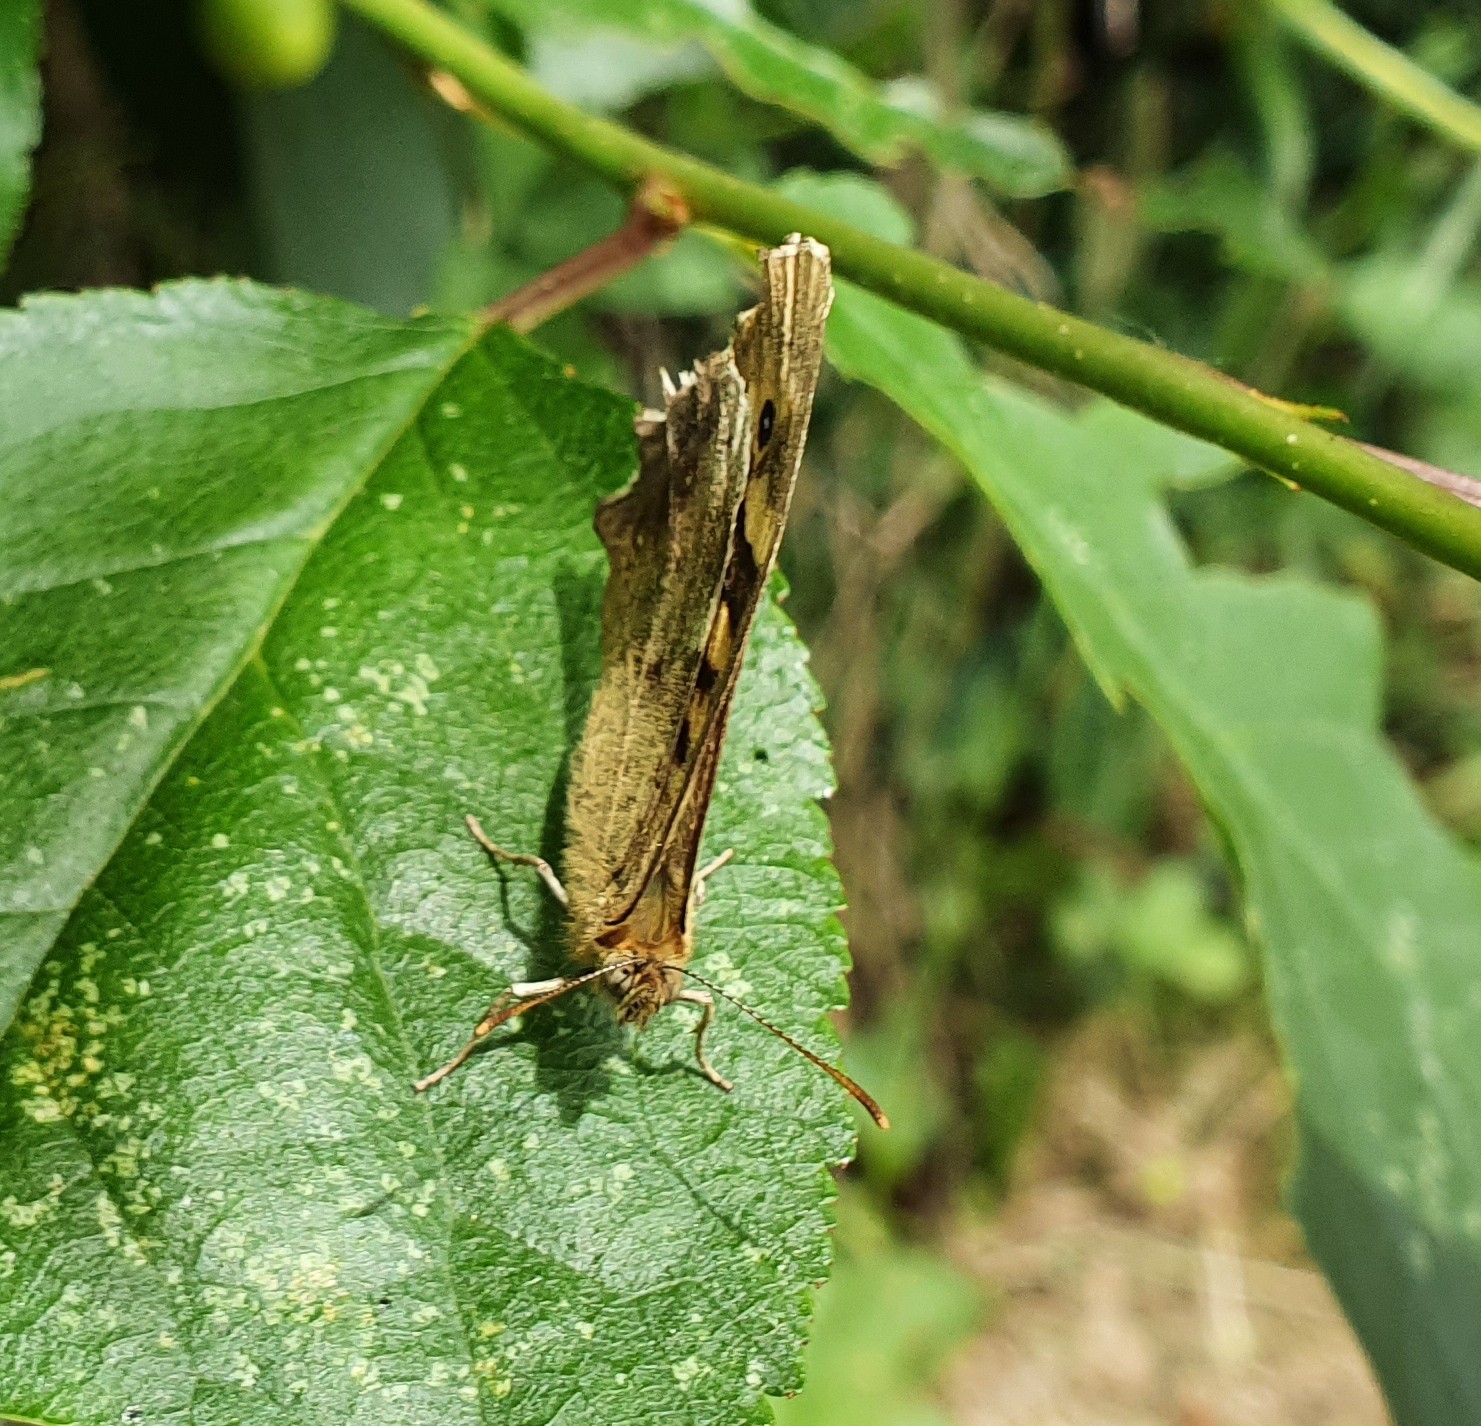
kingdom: Animalia
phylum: Arthropoda
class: Insecta
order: Lepidoptera
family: Nymphalidae
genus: Pararge
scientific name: Pararge aegeria
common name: Speckled wood
